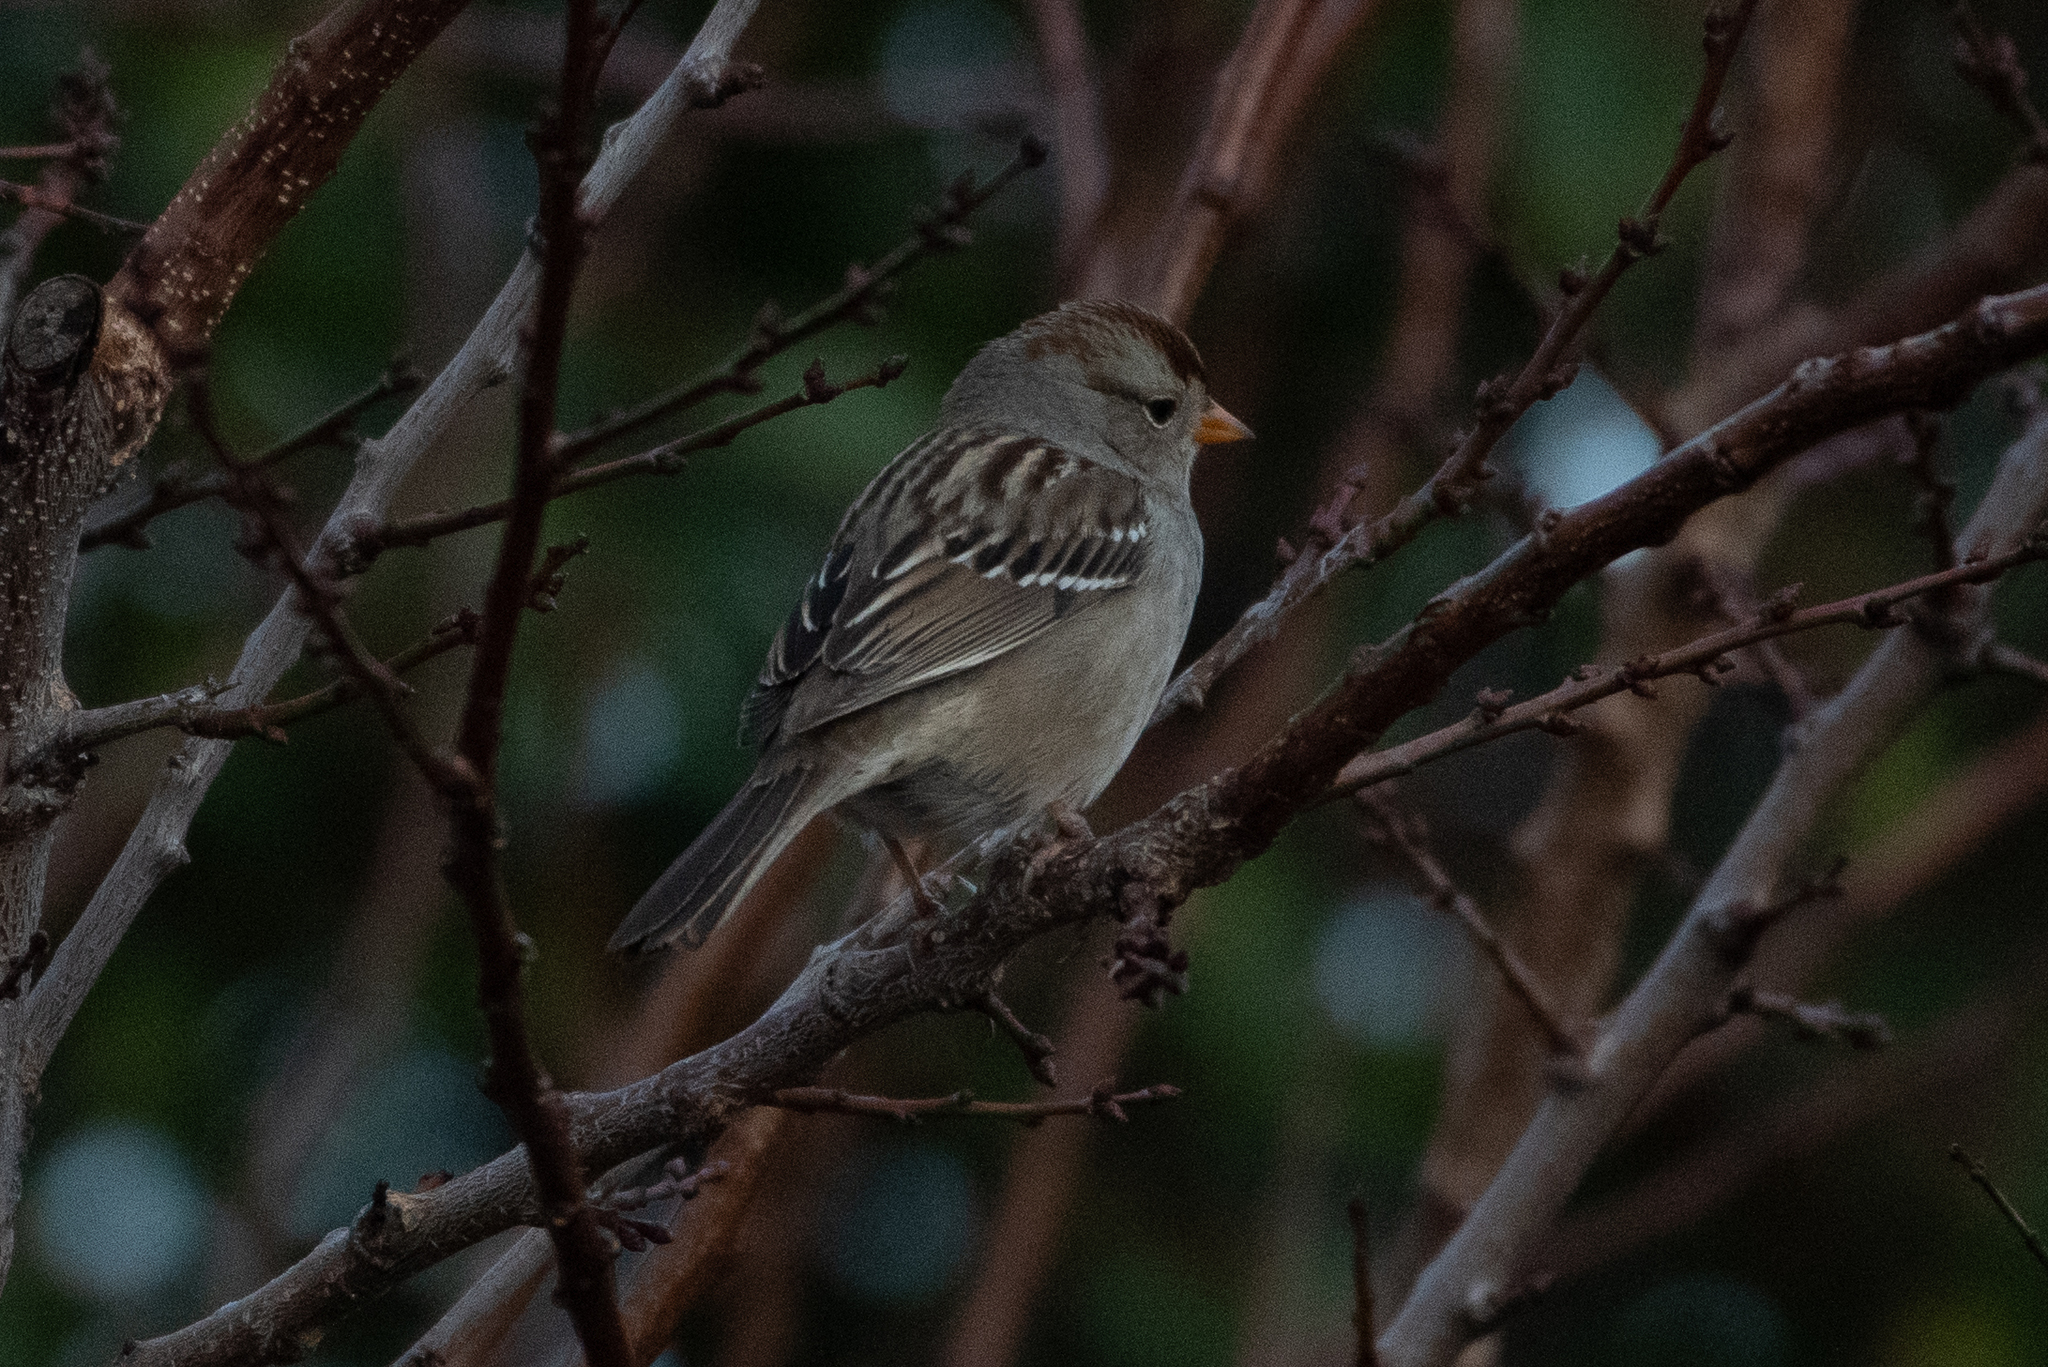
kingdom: Animalia
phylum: Chordata
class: Aves
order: Passeriformes
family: Passerellidae
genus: Zonotrichia
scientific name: Zonotrichia leucophrys
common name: White-crowned sparrow
